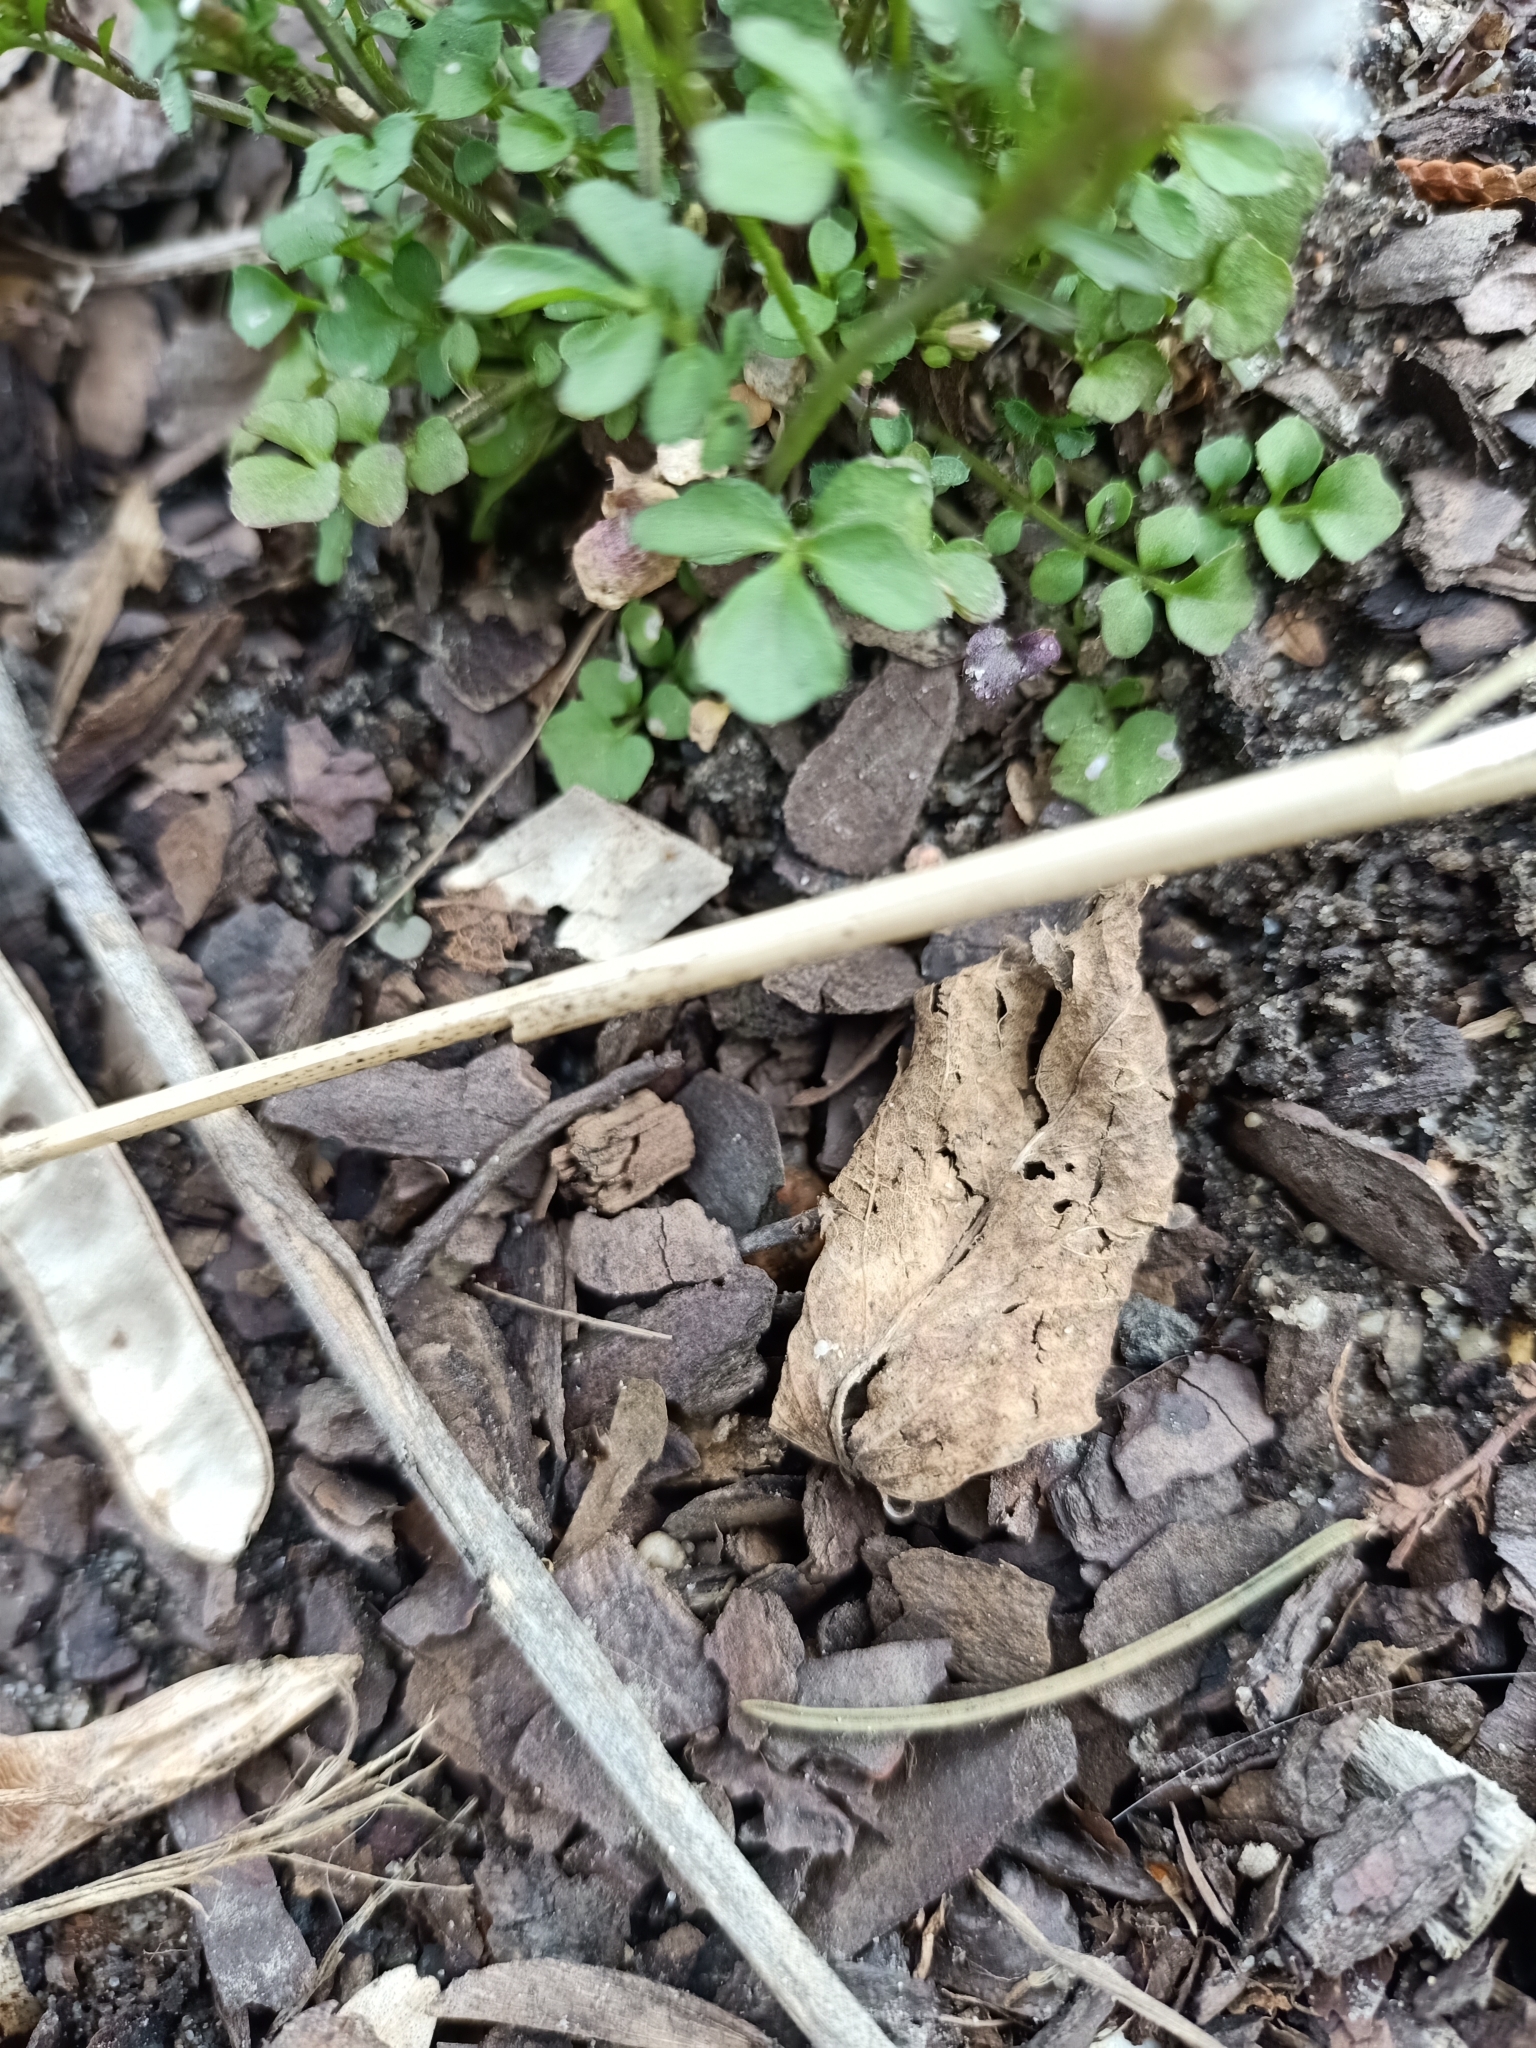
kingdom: Plantae
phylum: Tracheophyta
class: Magnoliopsida
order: Brassicales
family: Brassicaceae
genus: Cardamine
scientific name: Cardamine hirsuta
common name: Hairy bittercress
